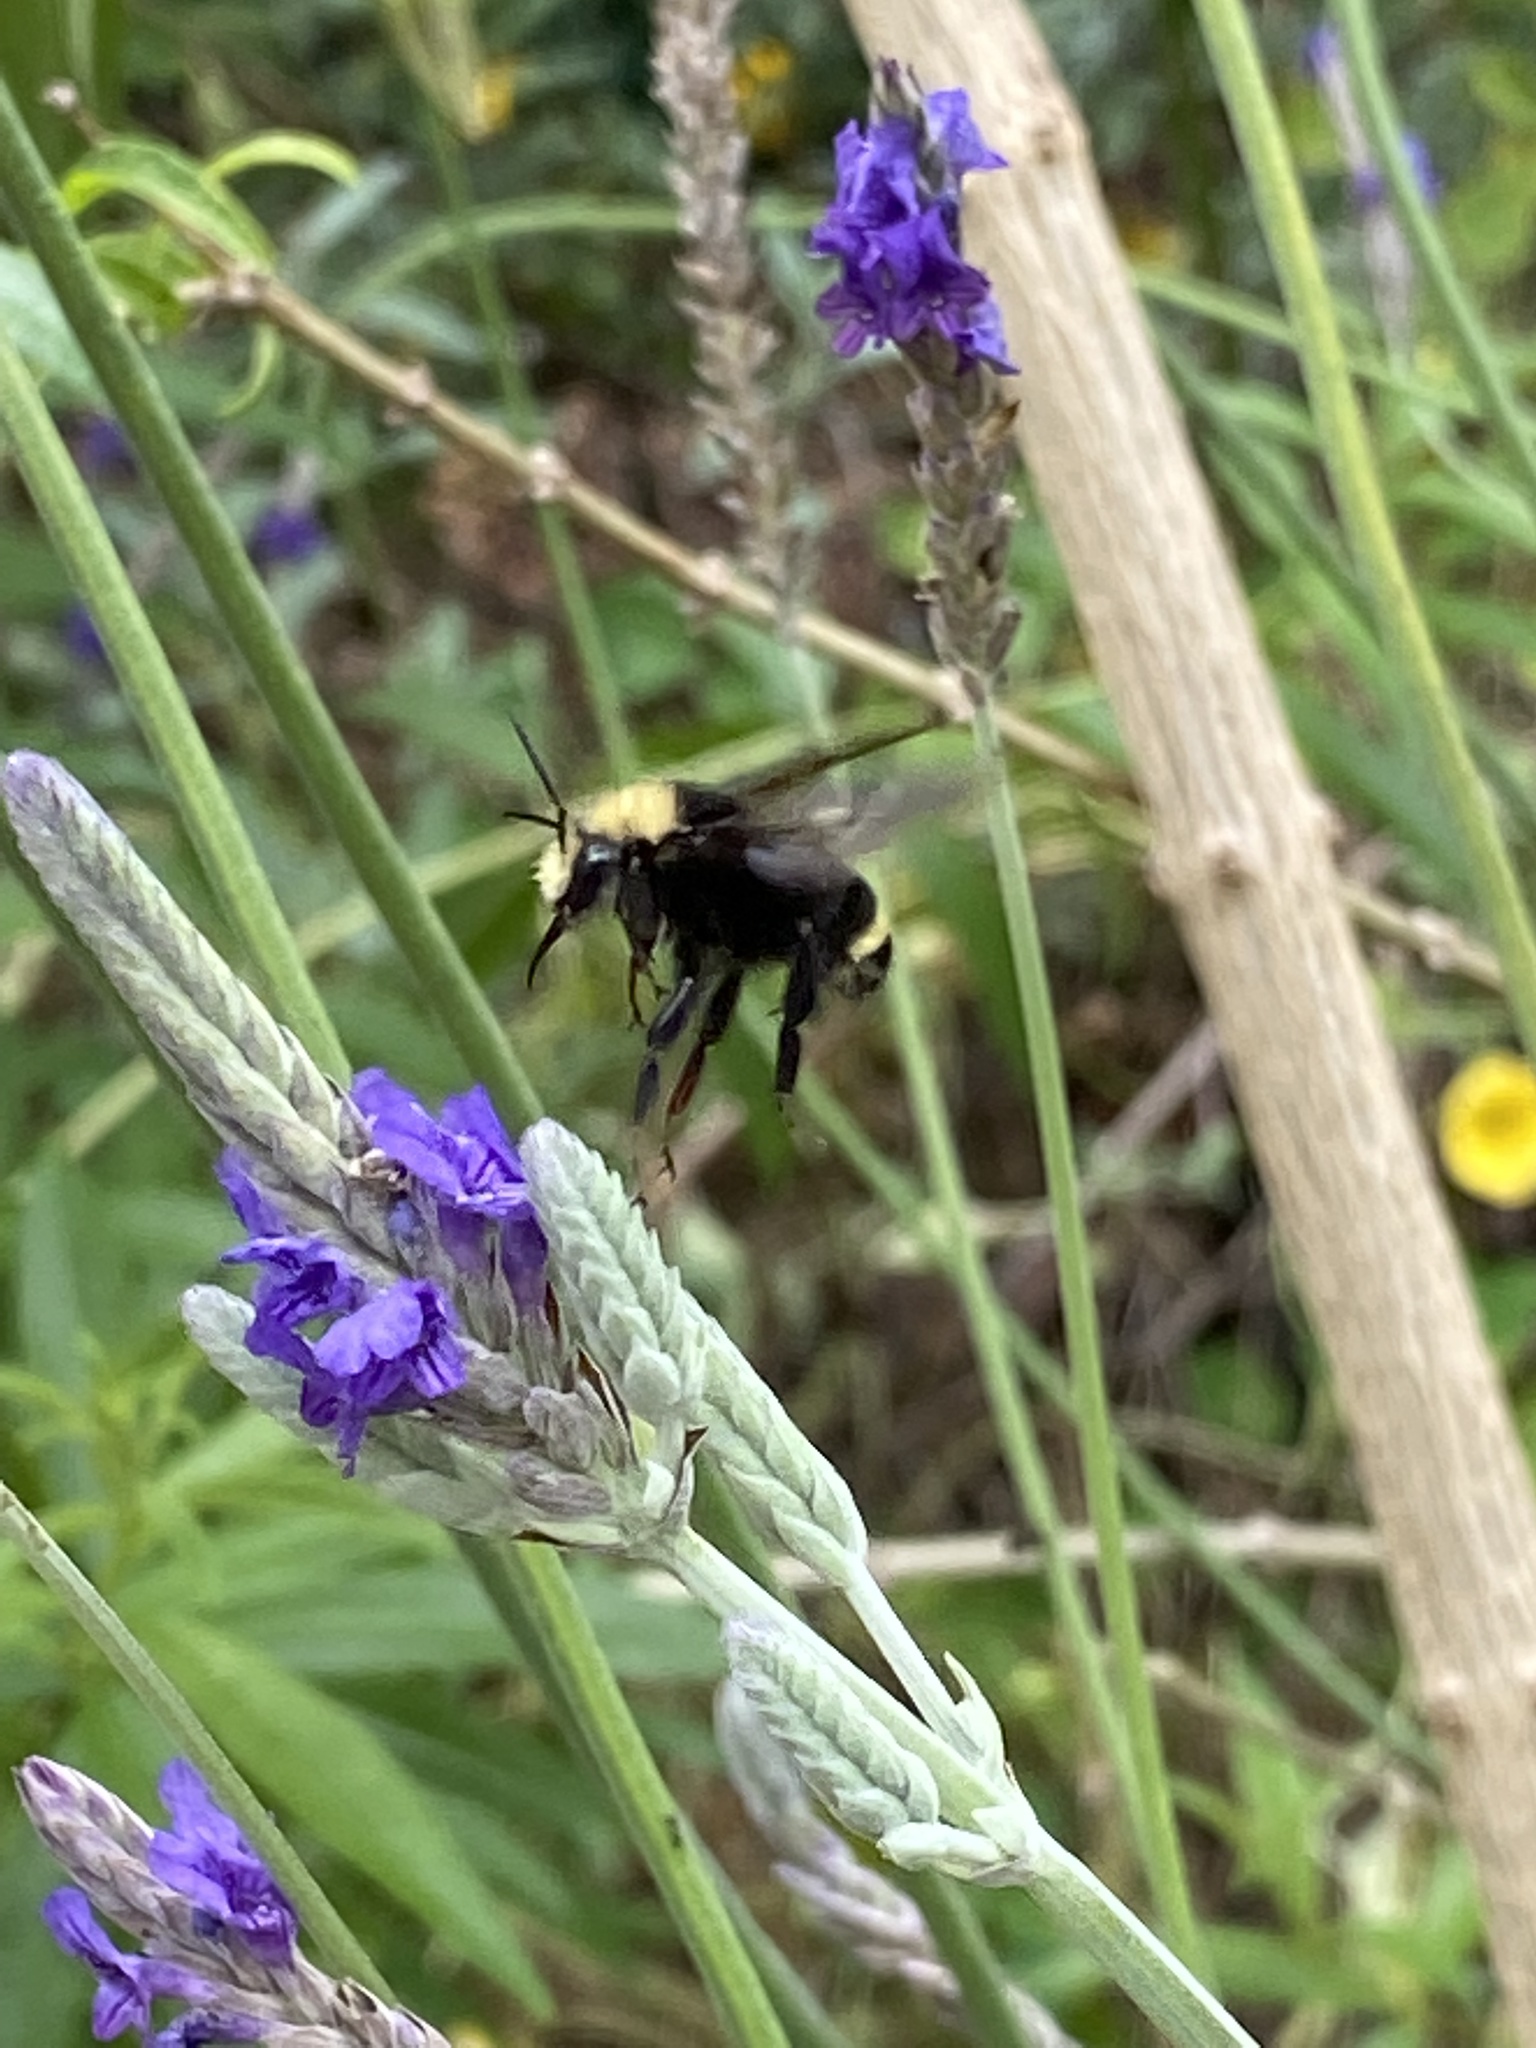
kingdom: Animalia
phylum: Arthropoda
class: Insecta
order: Hymenoptera
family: Apidae
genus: Bombus
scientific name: Bombus vosnesenskii
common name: Vosnesensky bumble bee
